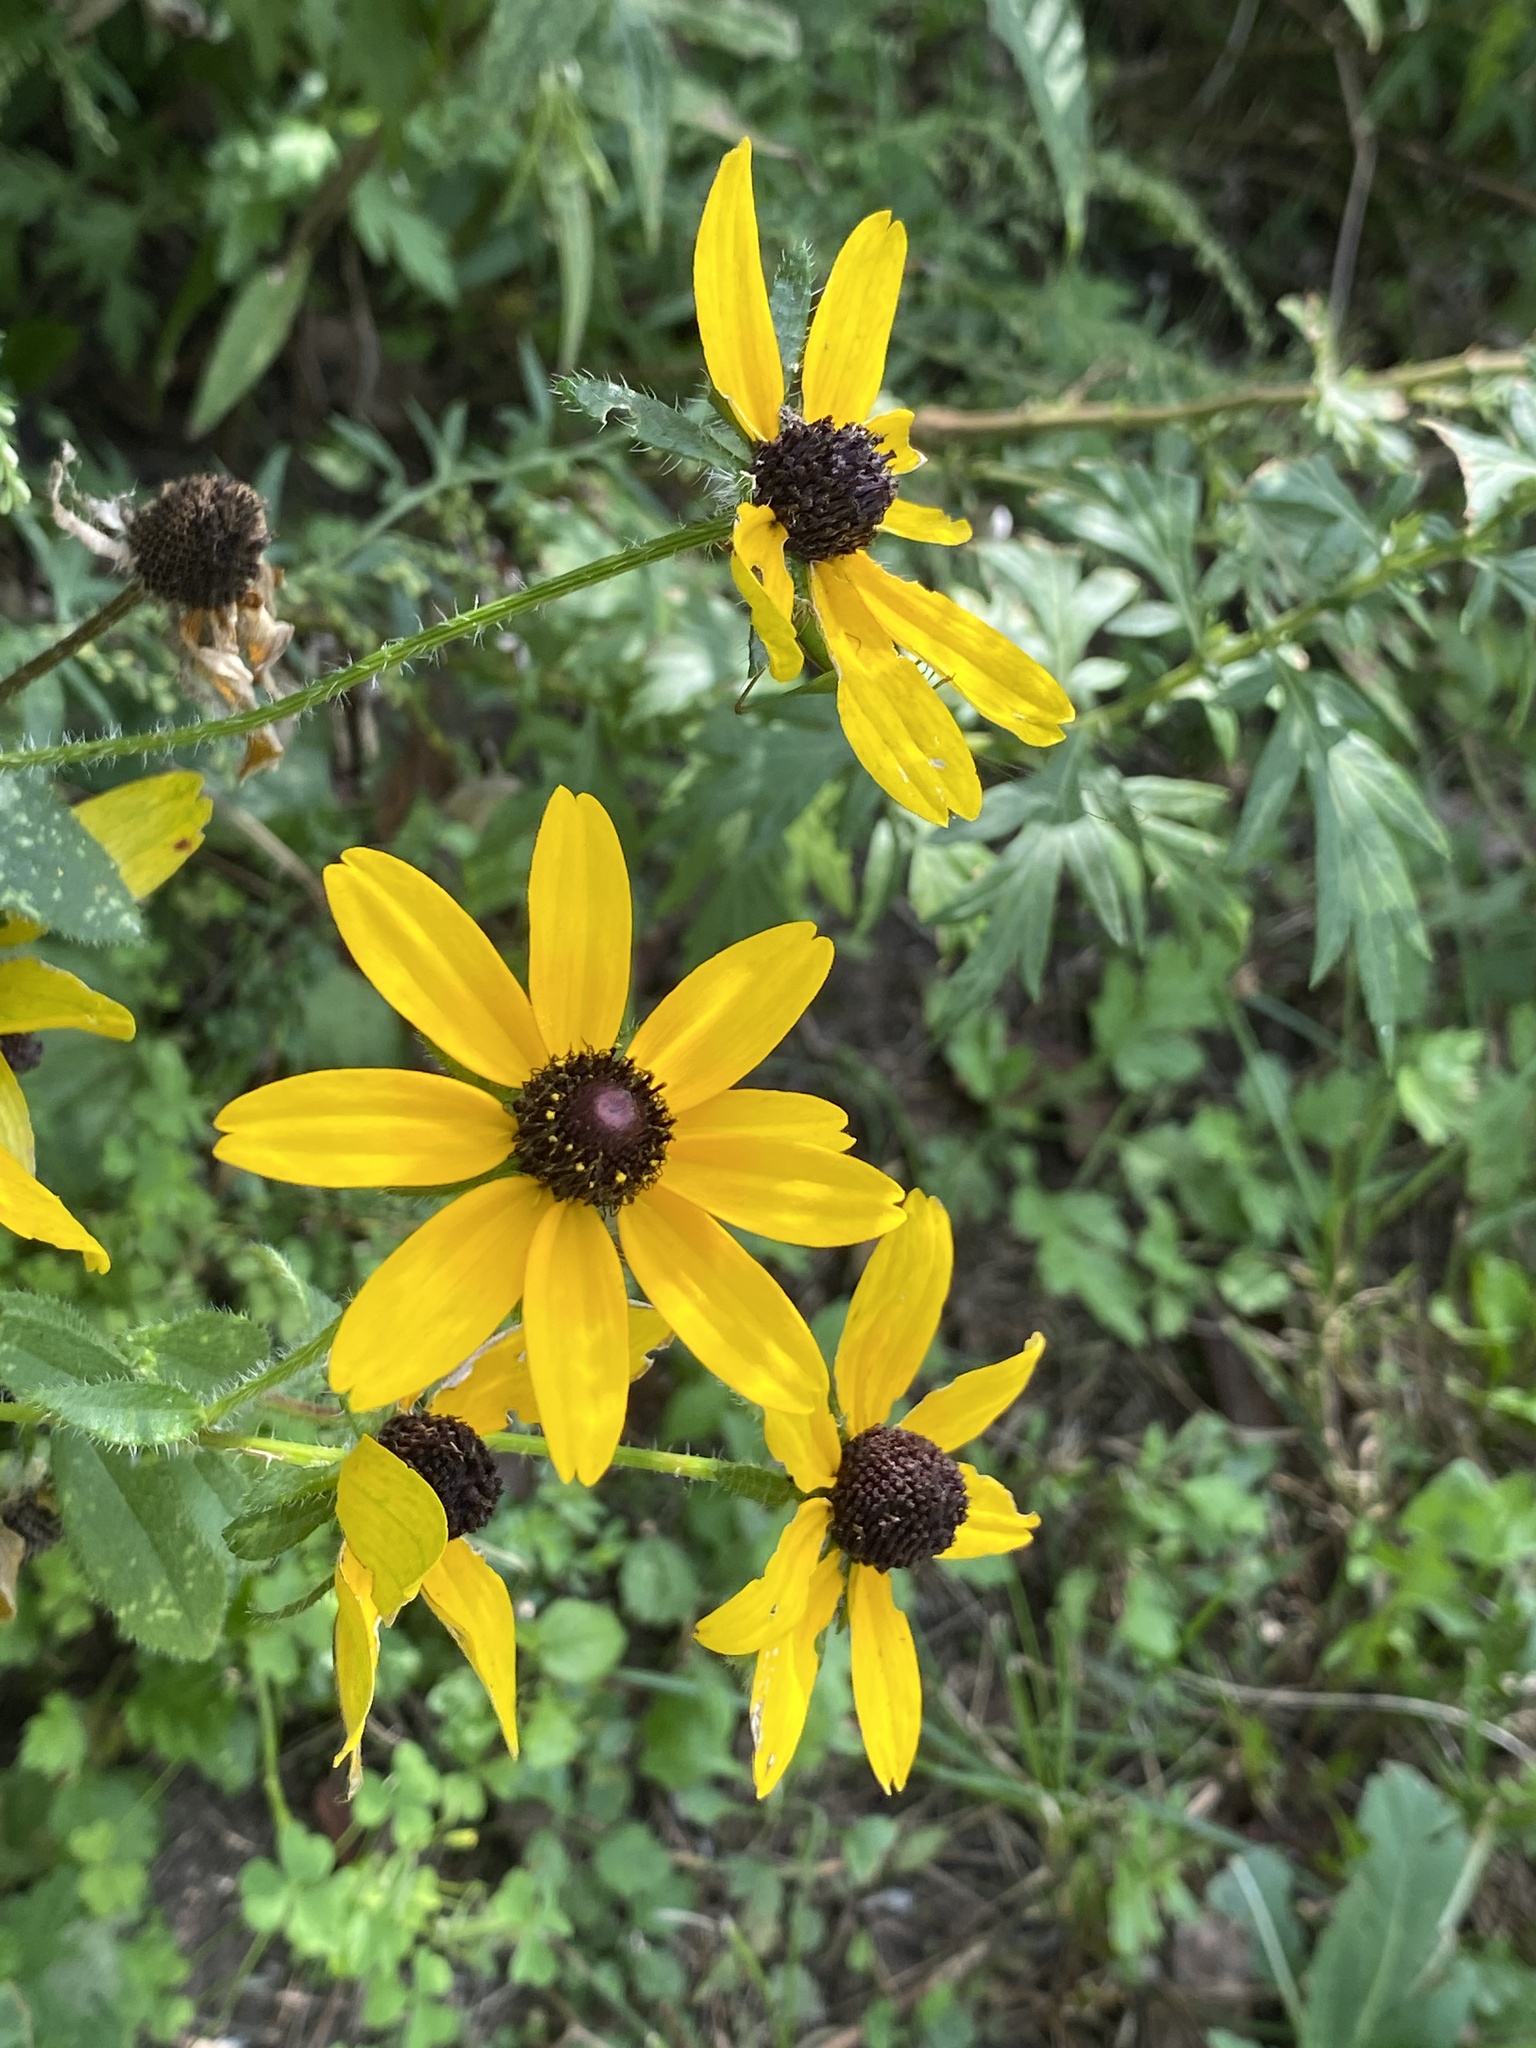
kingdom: Plantae
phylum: Tracheophyta
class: Magnoliopsida
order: Asterales
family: Asteraceae
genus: Rudbeckia
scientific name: Rudbeckia hirta
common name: Black-eyed-susan
